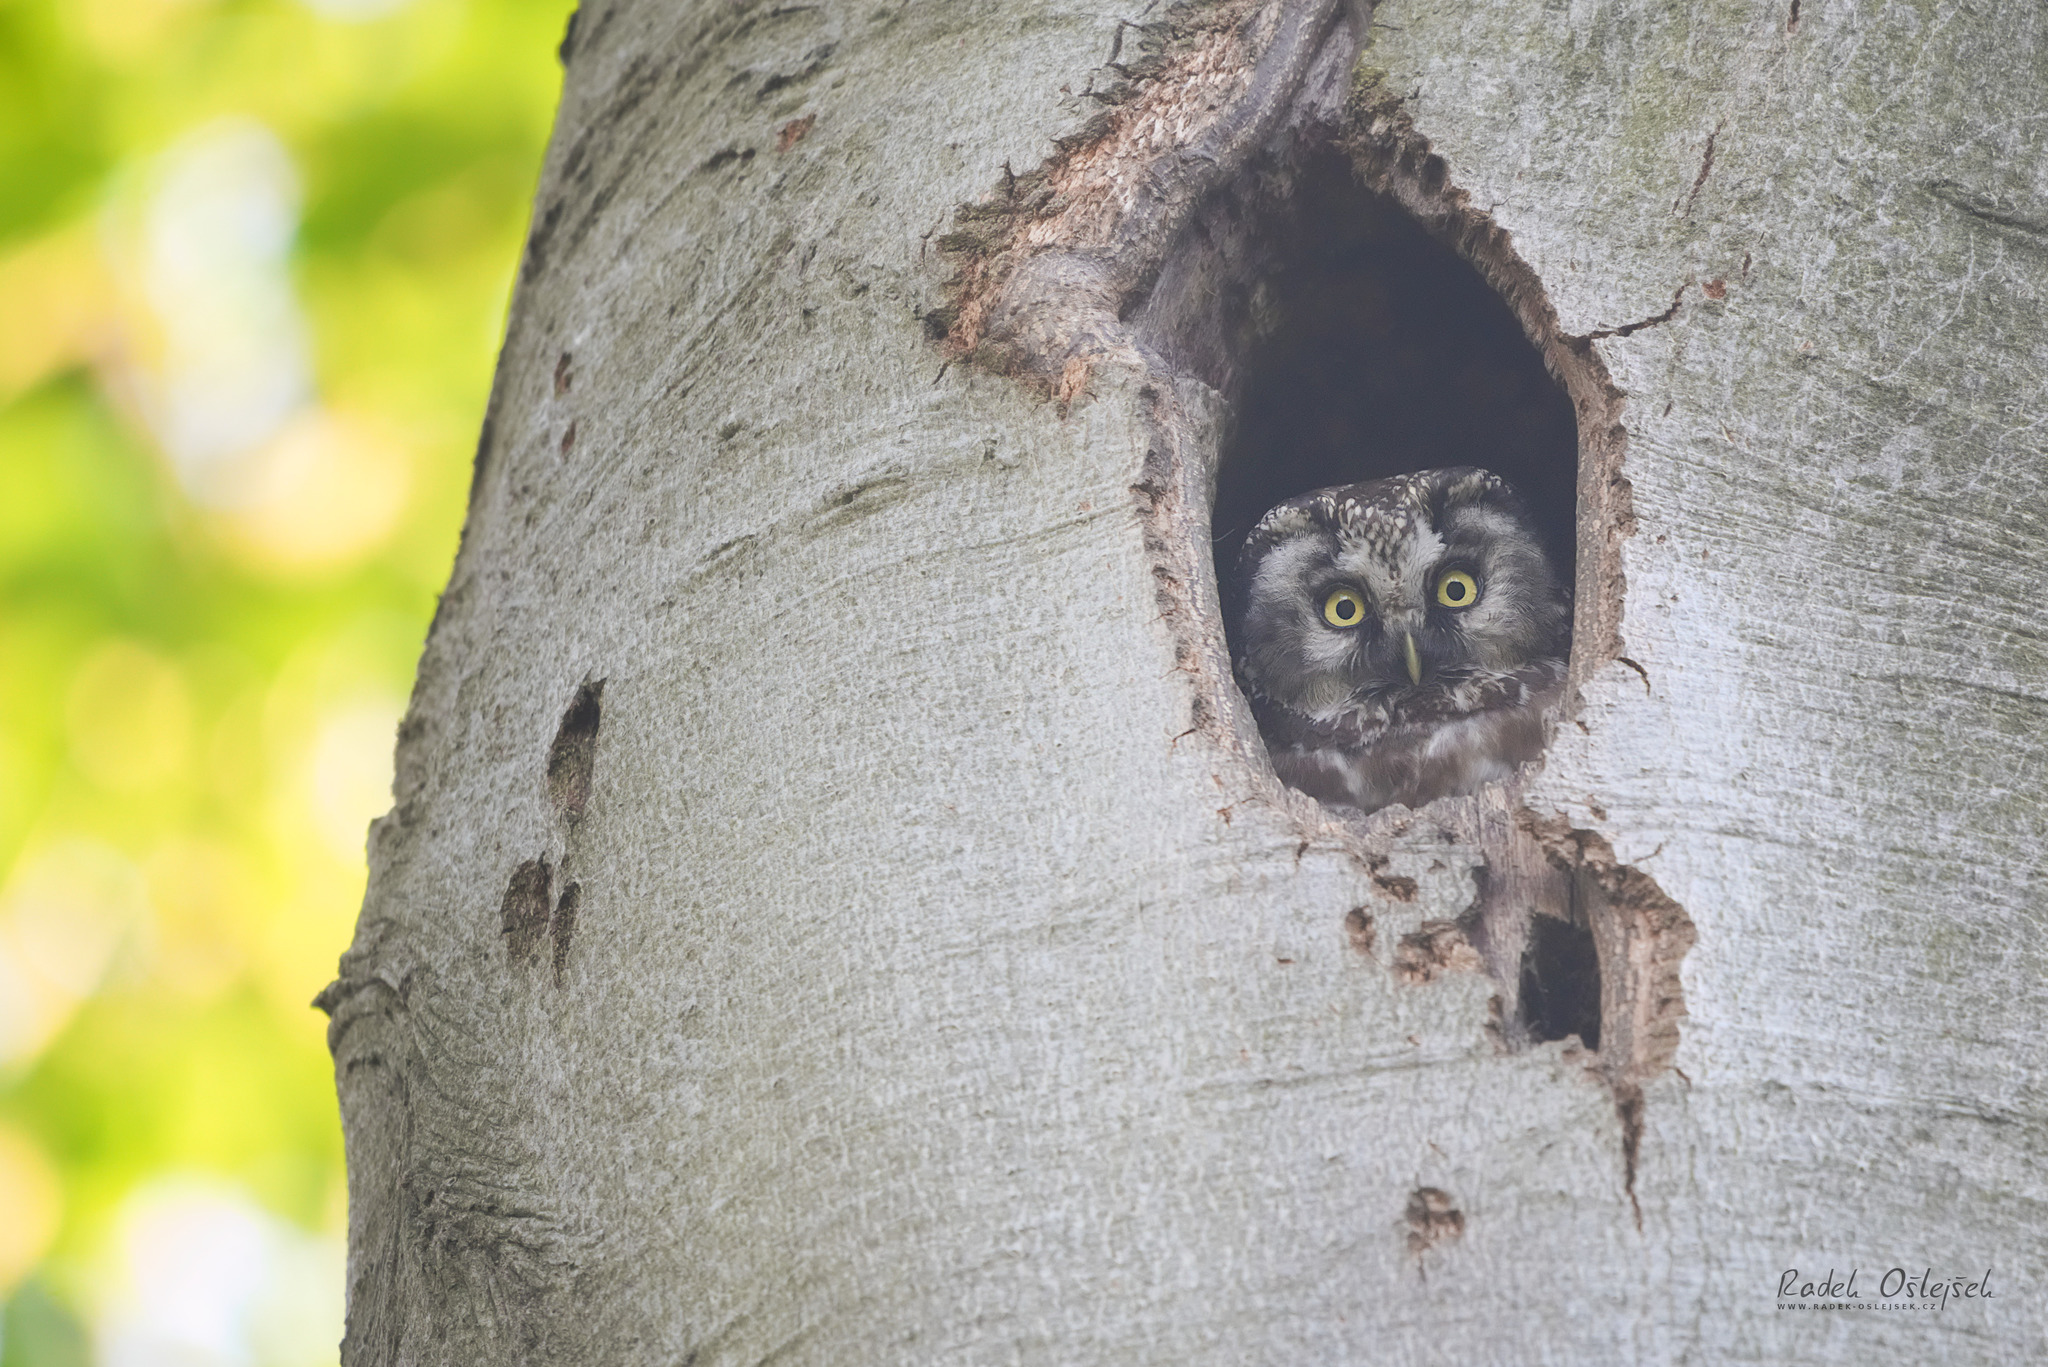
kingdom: Animalia
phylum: Chordata
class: Aves
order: Strigiformes
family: Strigidae
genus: Aegolius
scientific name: Aegolius funereus
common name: Boreal owl
